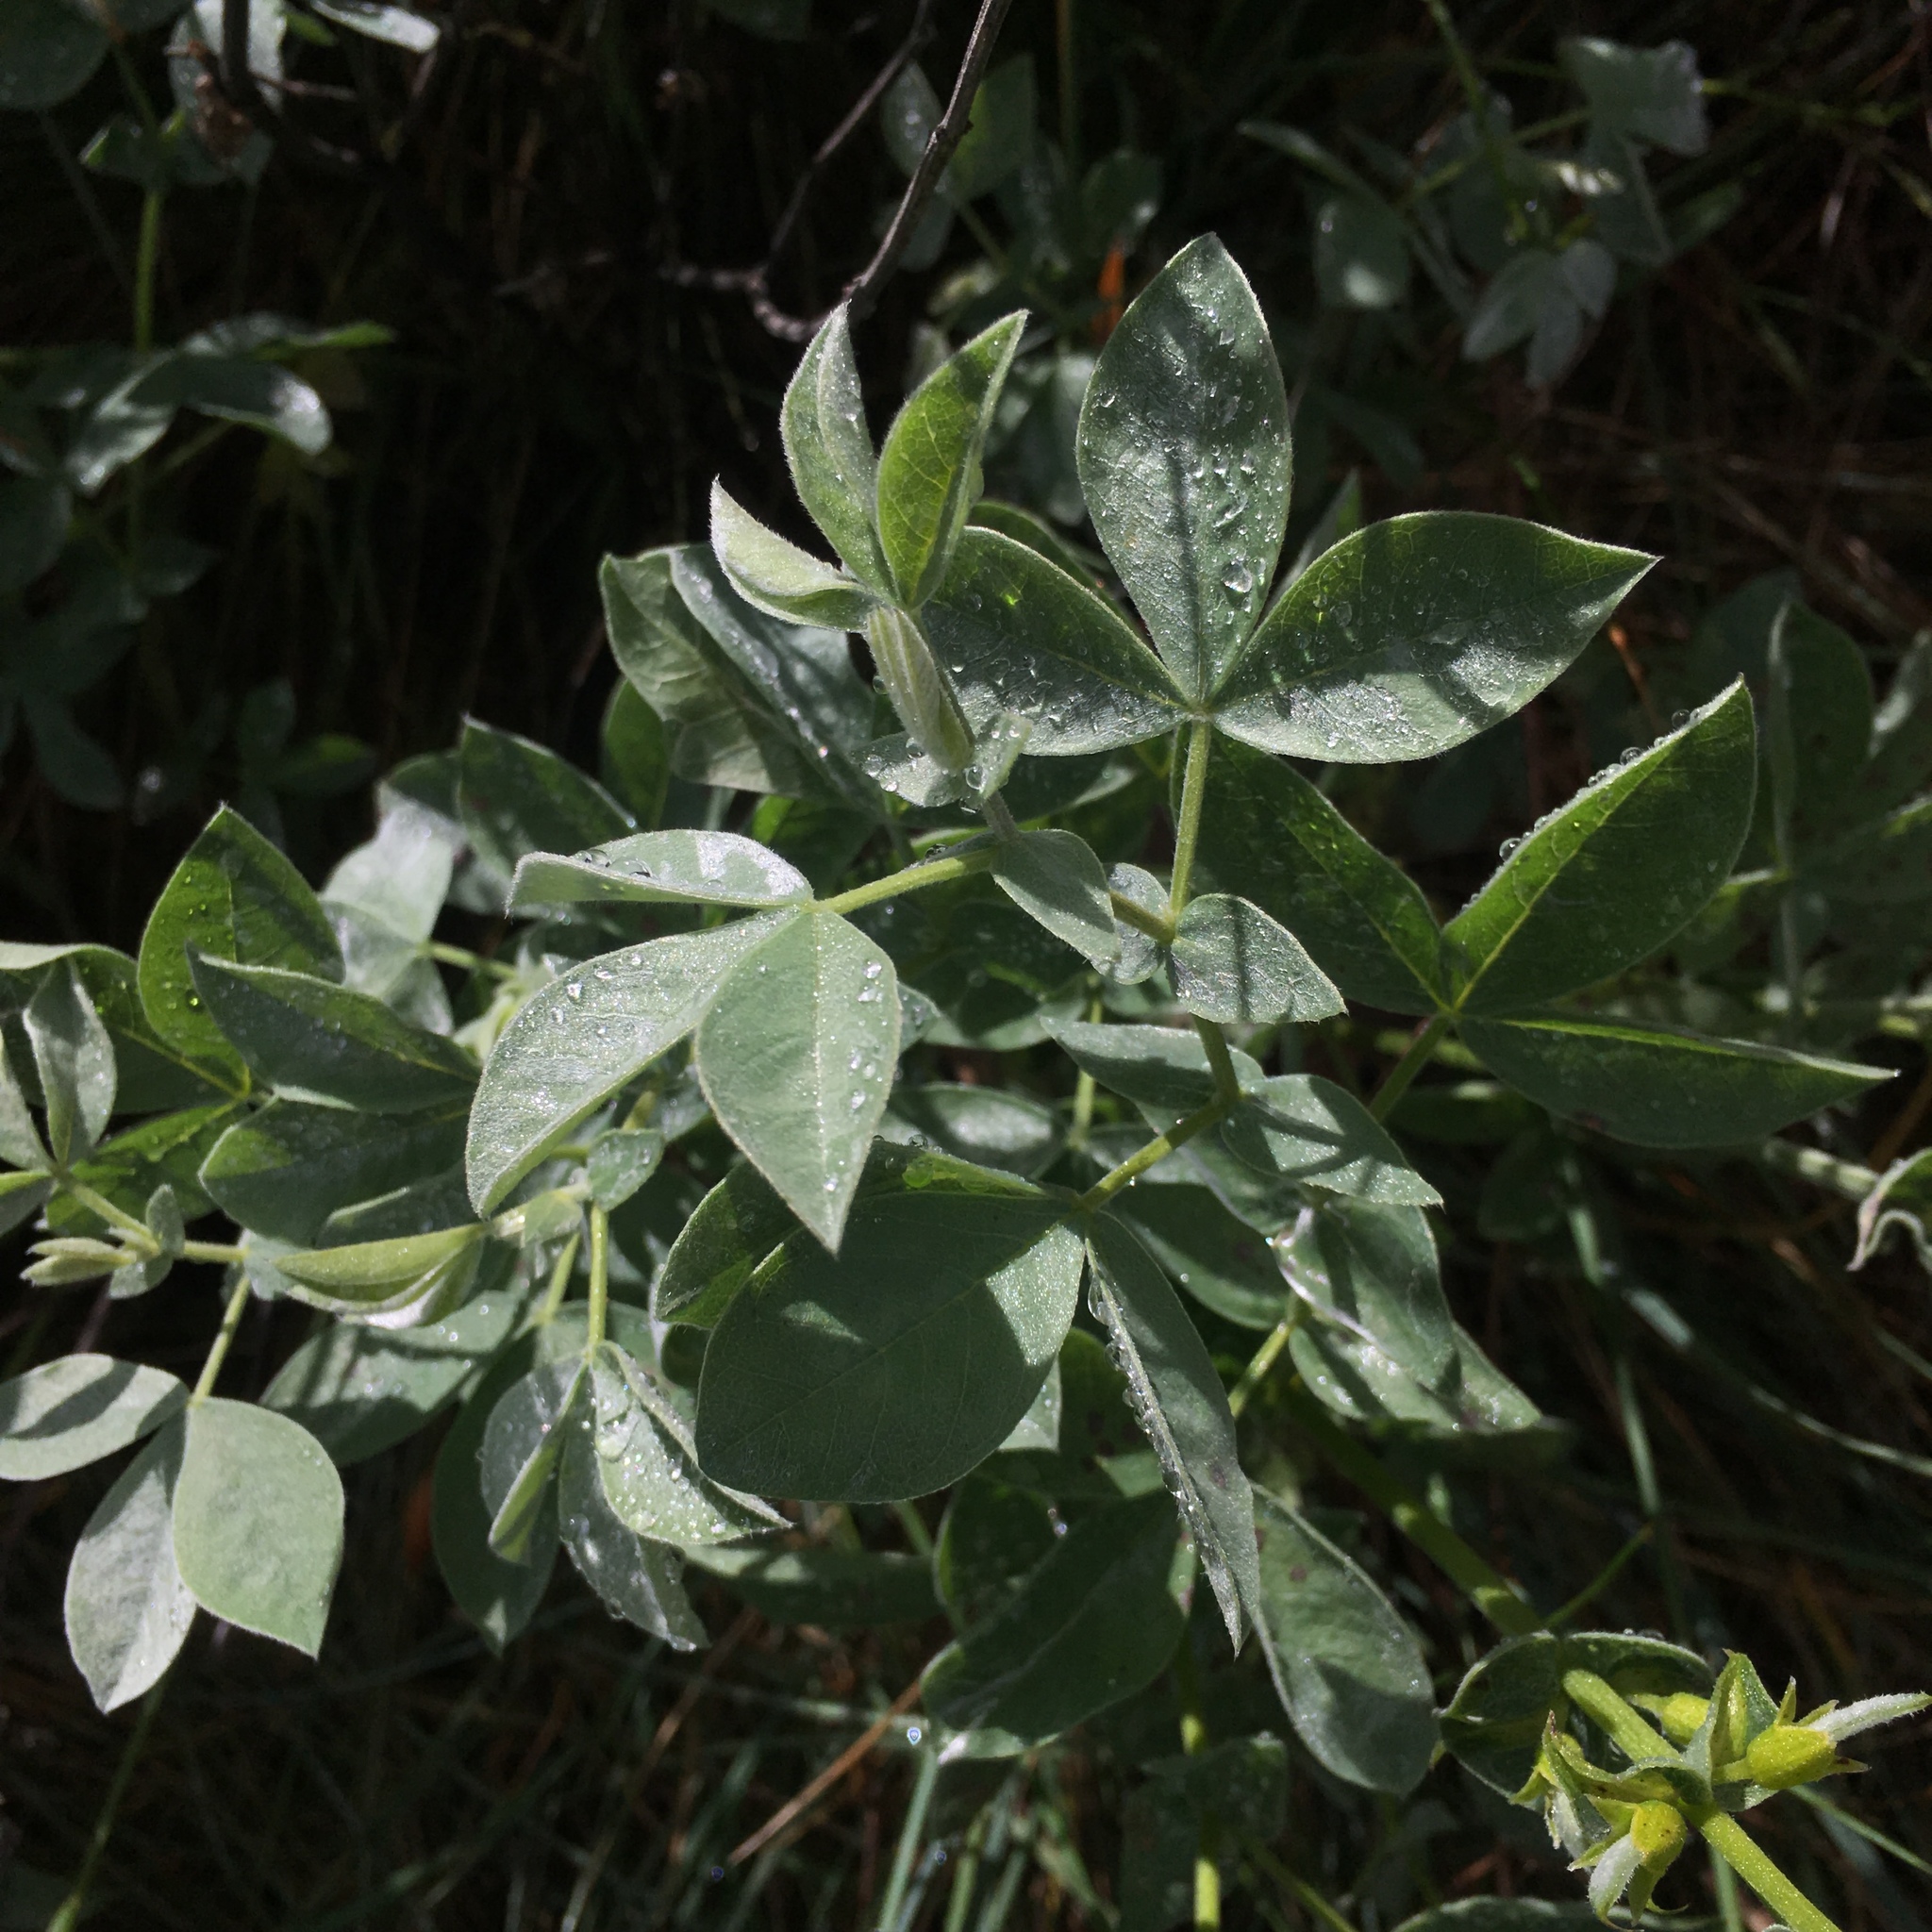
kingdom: Plantae
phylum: Tracheophyta
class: Magnoliopsida
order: Fabales
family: Fabaceae
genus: Thermopsis
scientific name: Thermopsis californica
